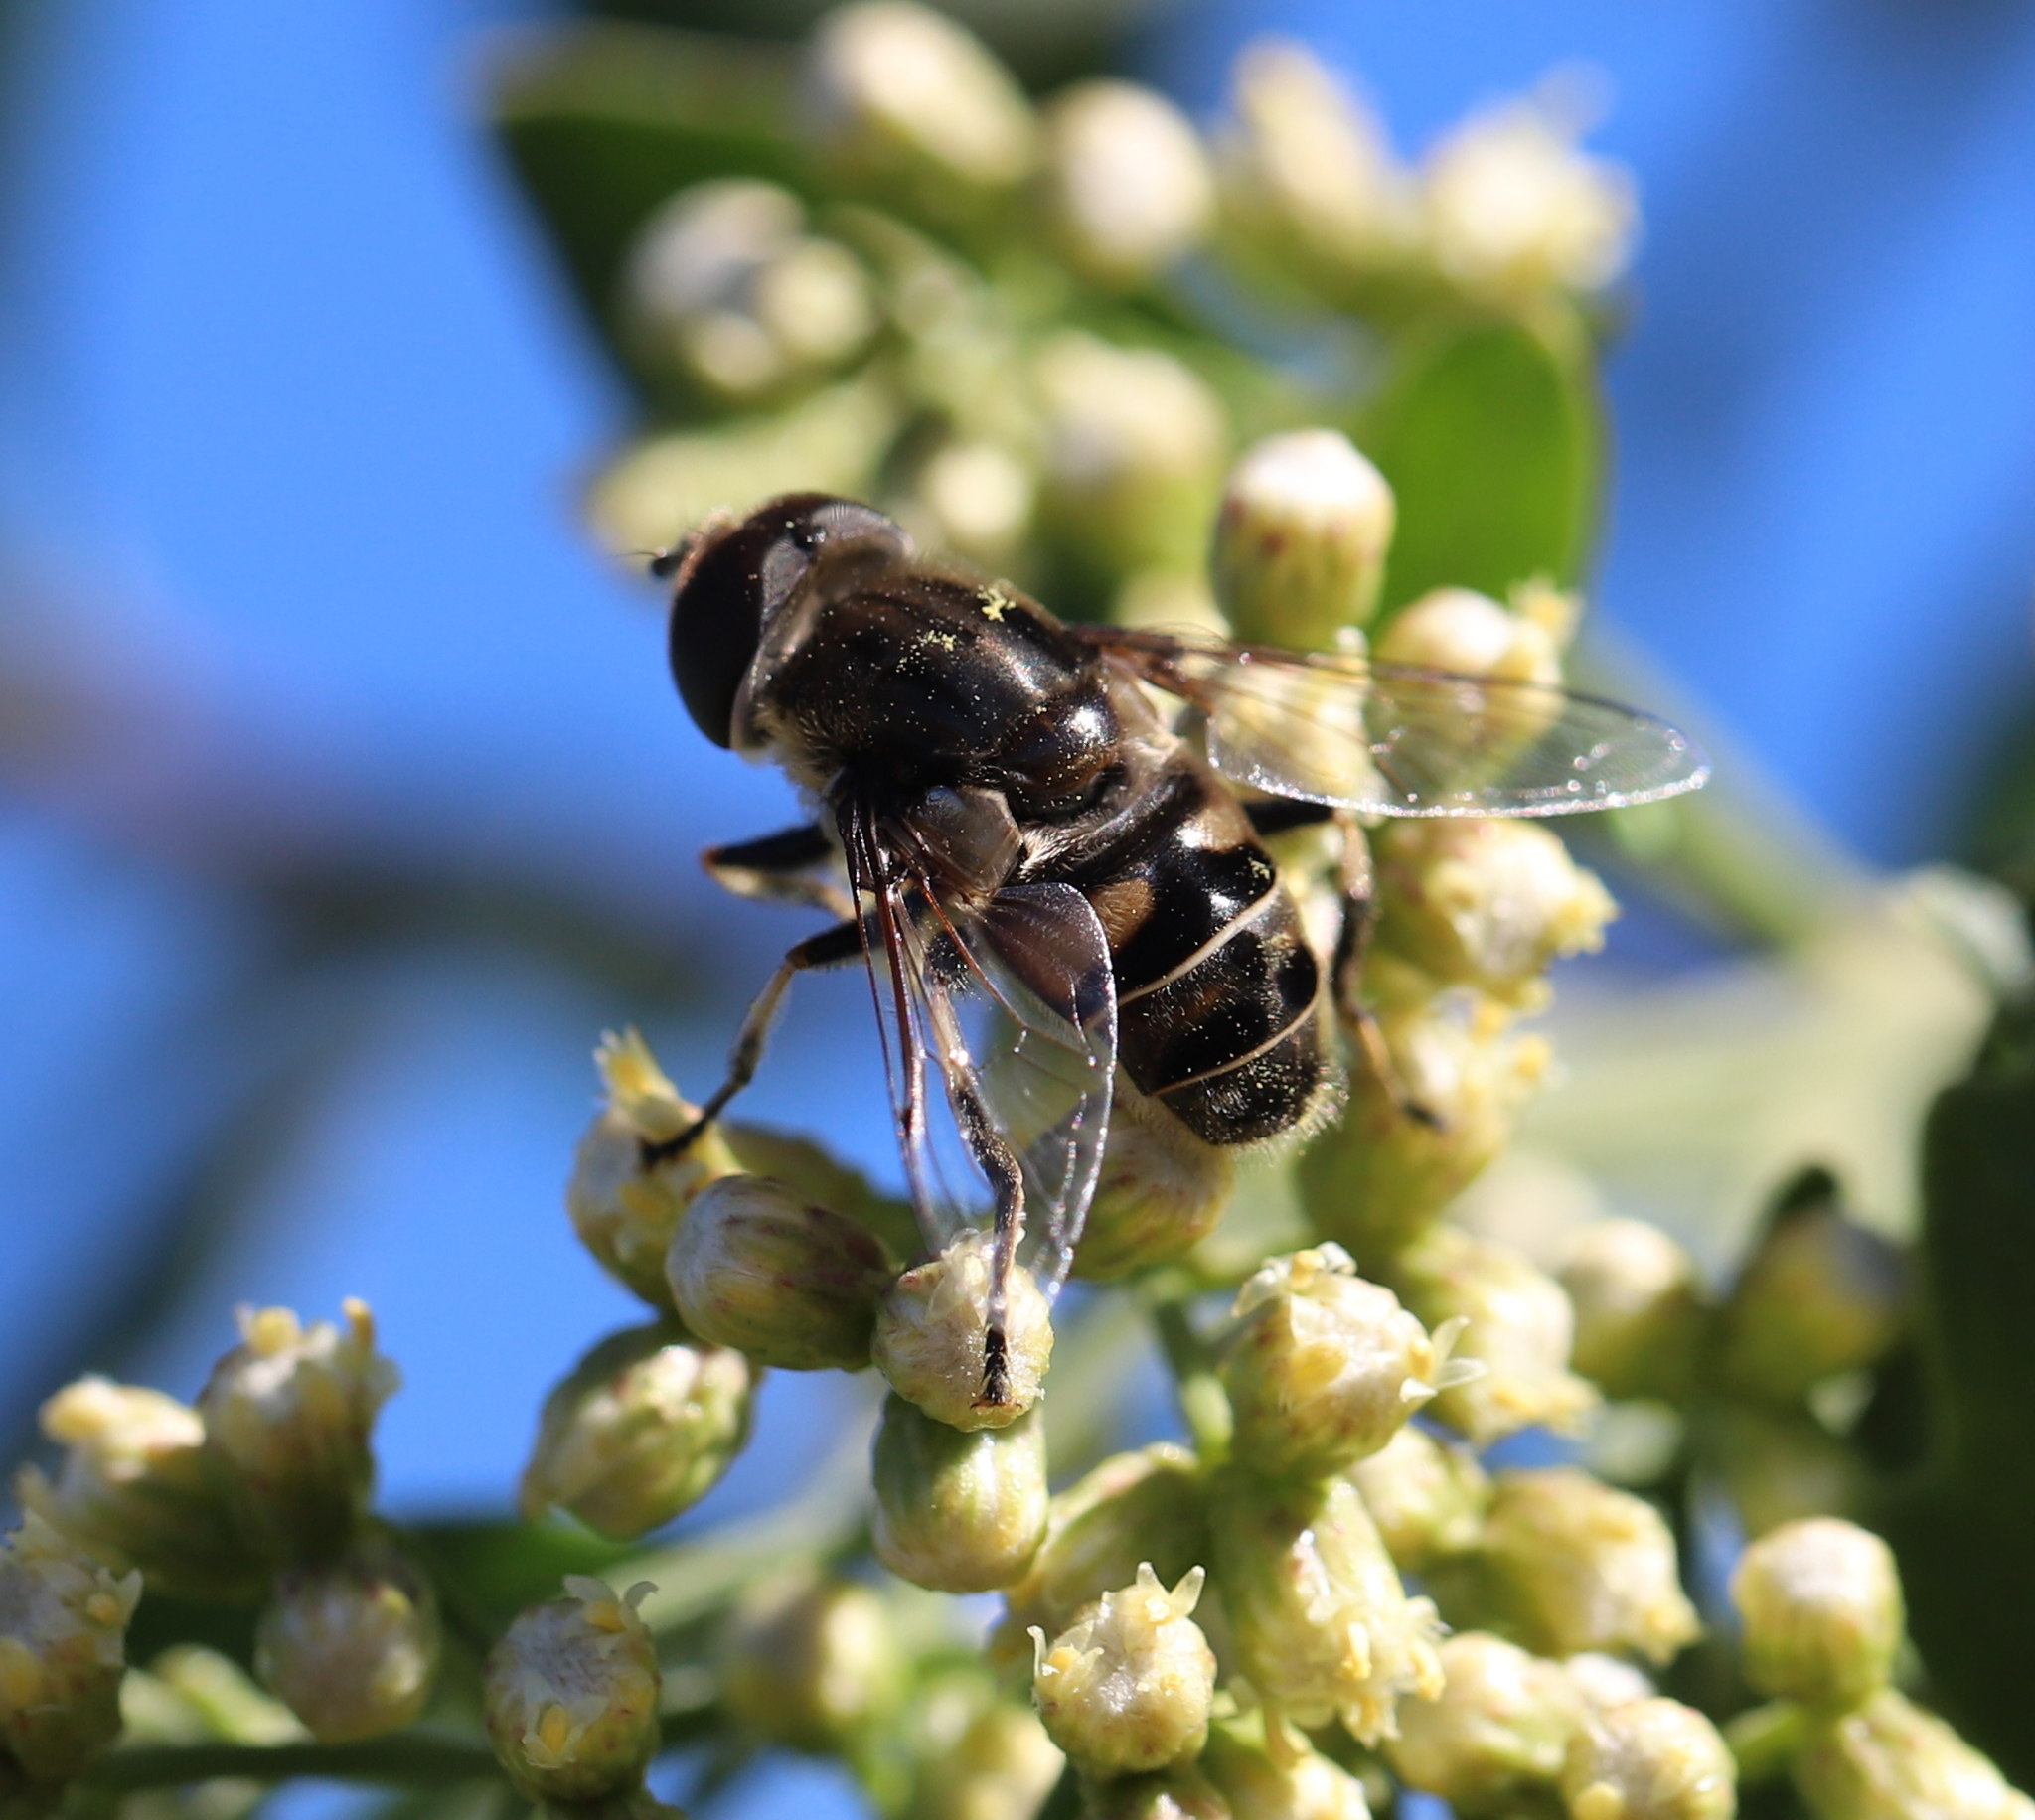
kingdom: Animalia
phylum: Arthropoda
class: Insecta
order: Diptera
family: Syrphidae
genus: Eristalis
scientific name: Eristalis dimidiata
